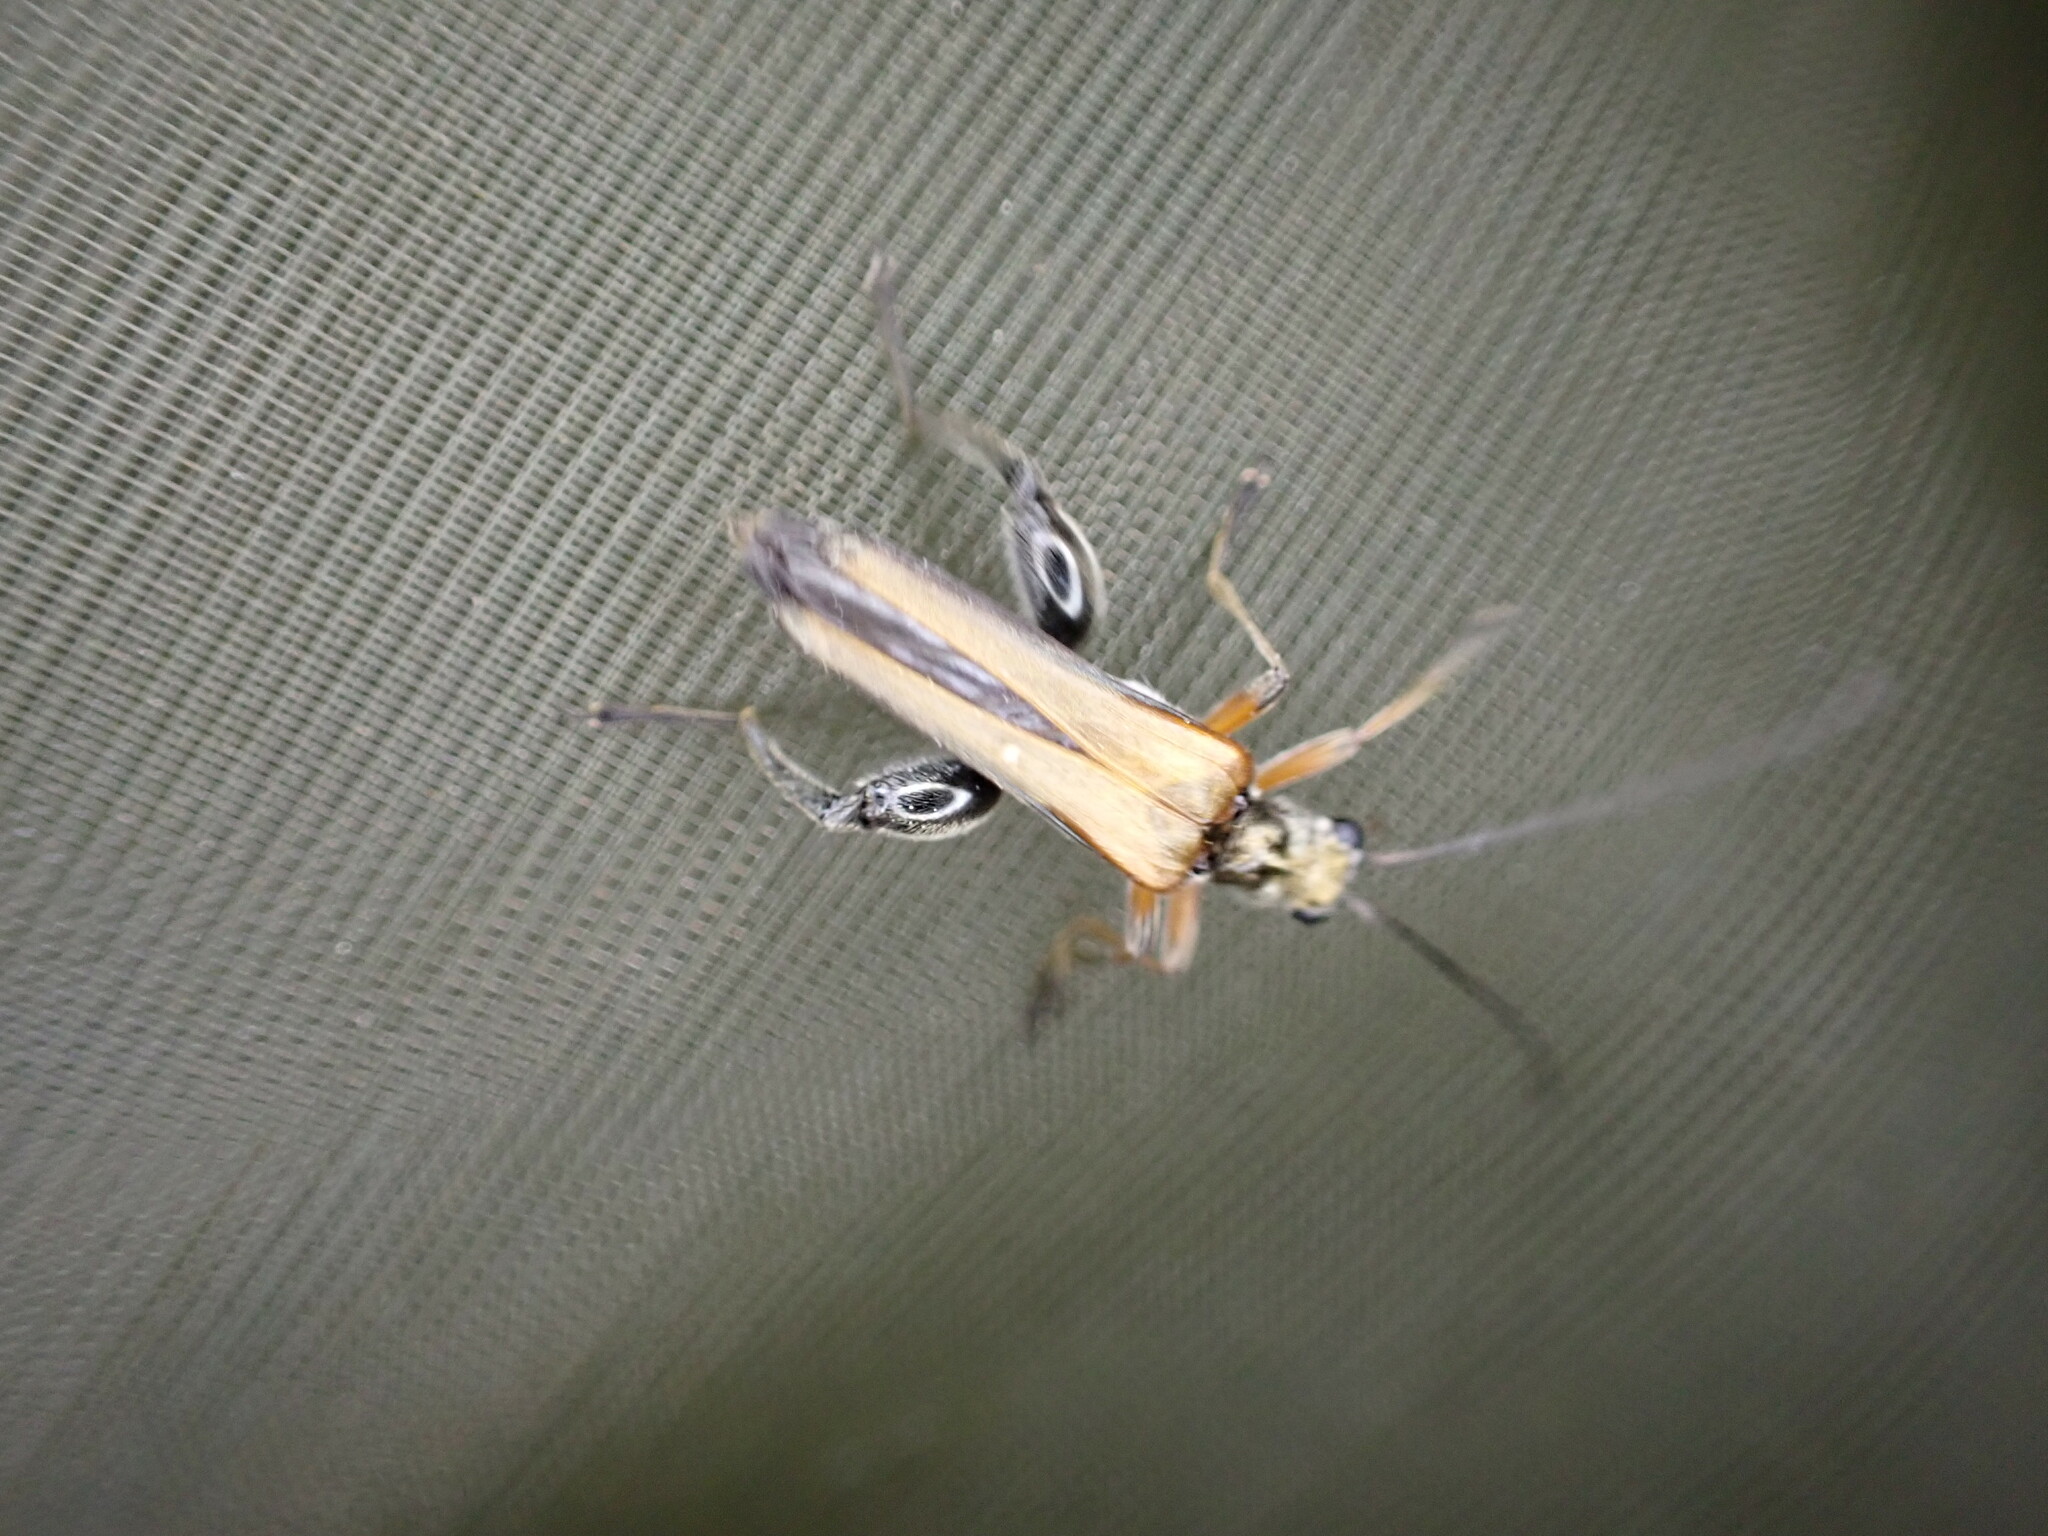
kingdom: Animalia
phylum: Arthropoda
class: Insecta
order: Coleoptera
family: Oedemeridae
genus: Oedemera
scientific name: Oedemera podagrariae
